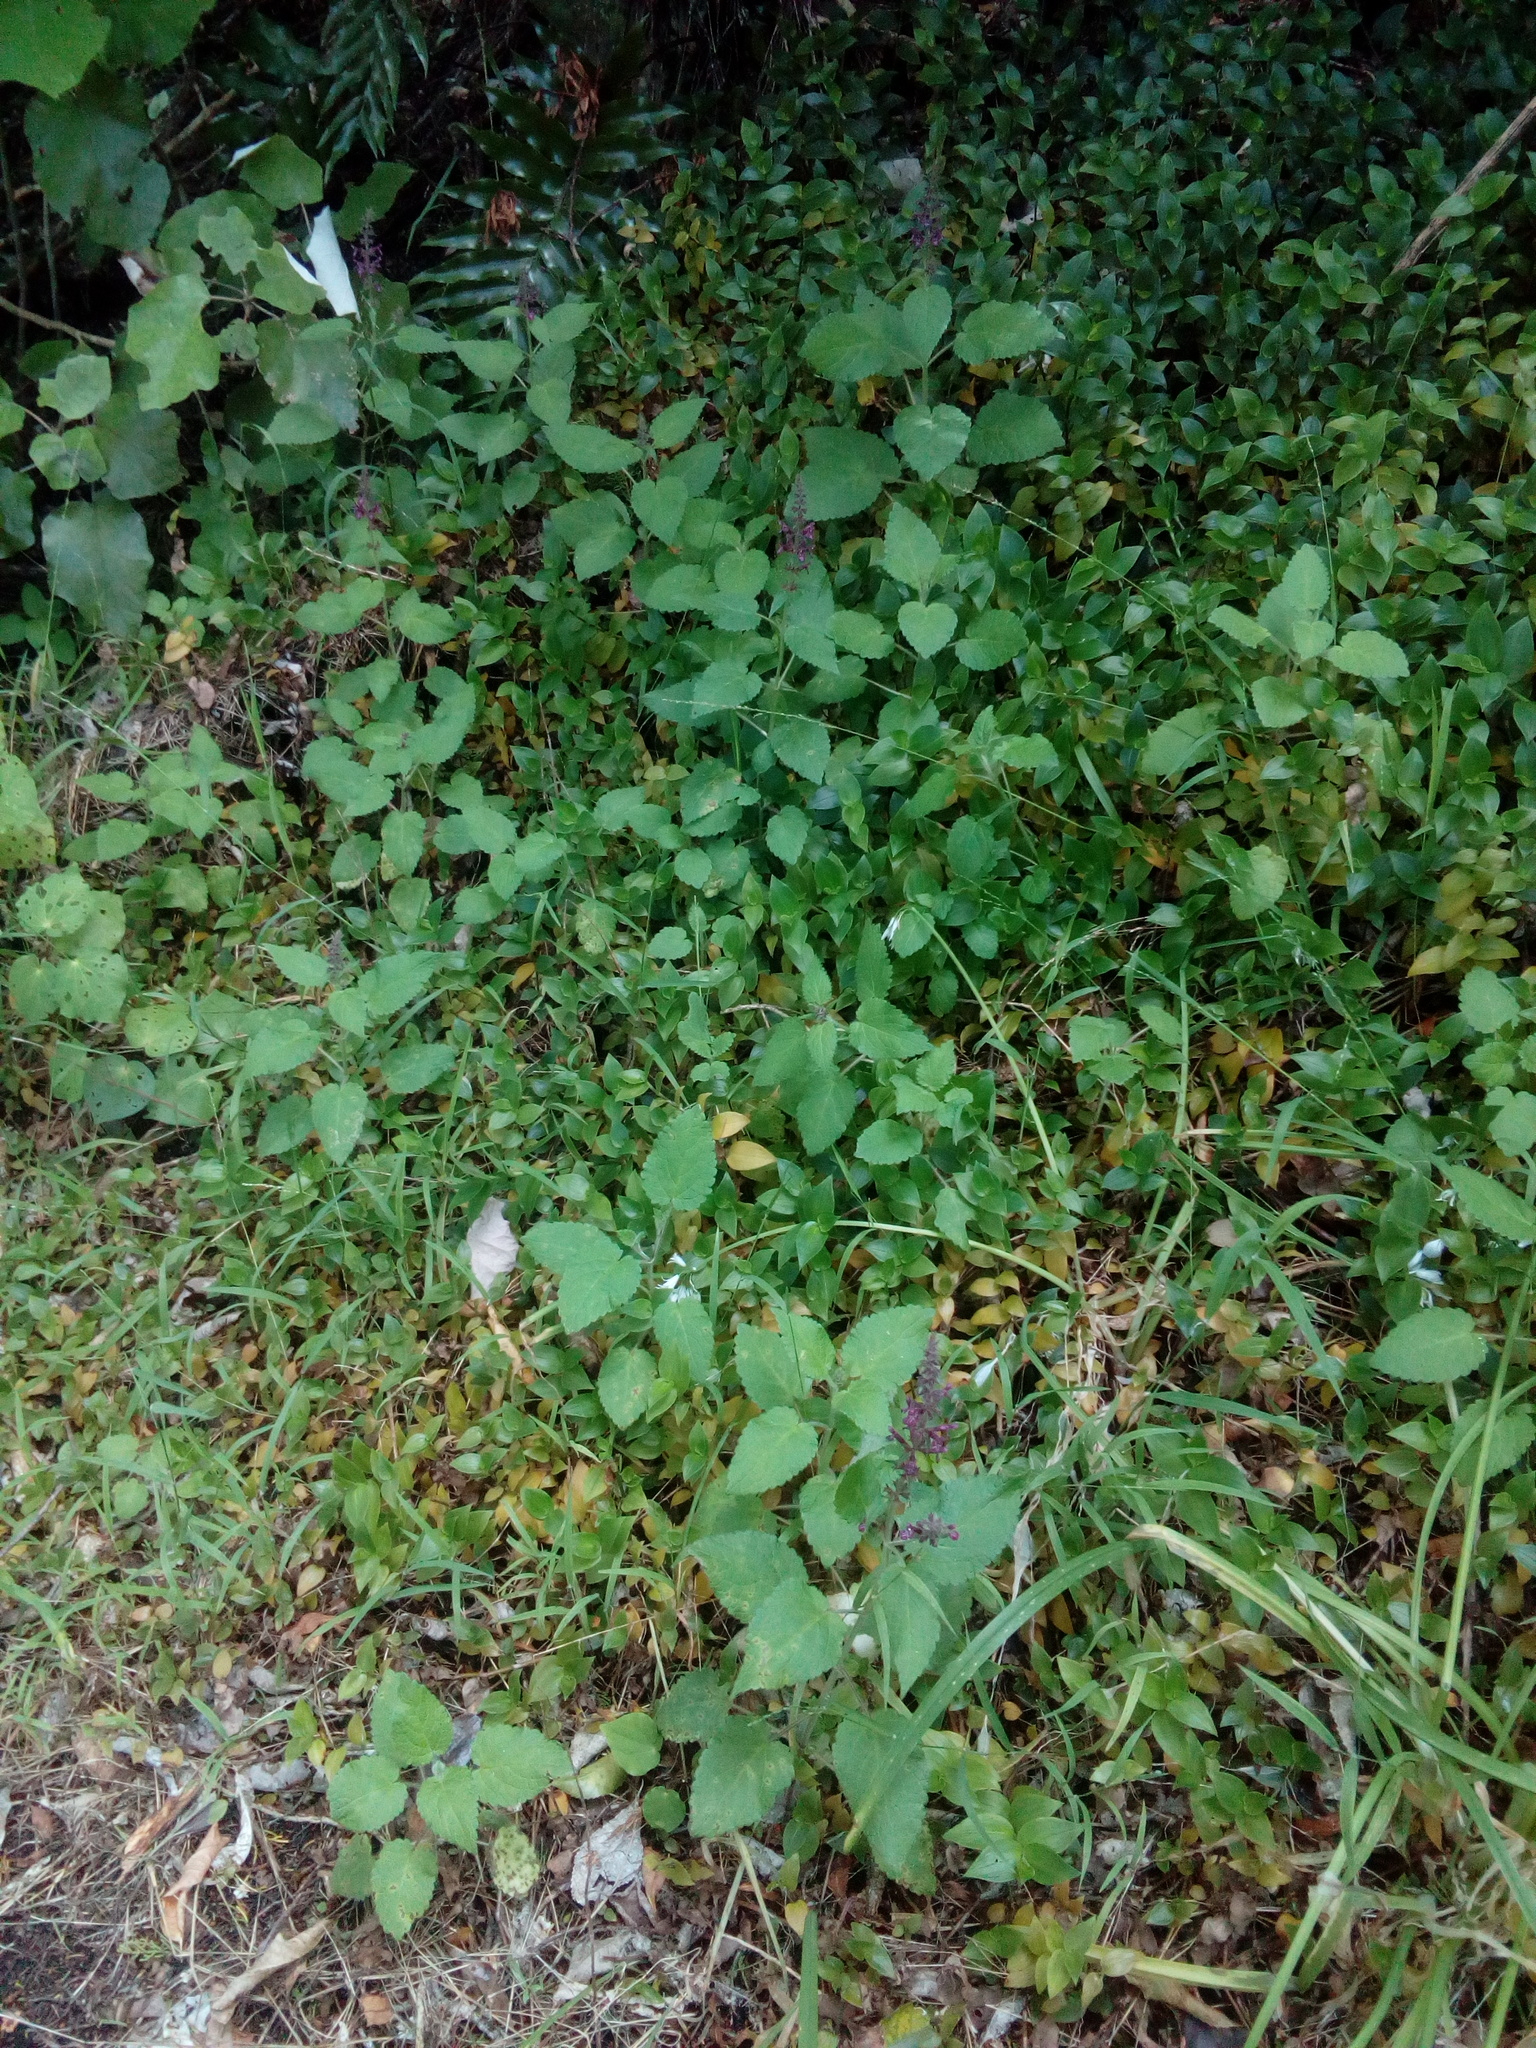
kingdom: Plantae
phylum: Tracheophyta
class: Magnoliopsida
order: Lamiales
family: Lamiaceae
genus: Stachys
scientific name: Stachys sylvatica
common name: Hedge woundwort
